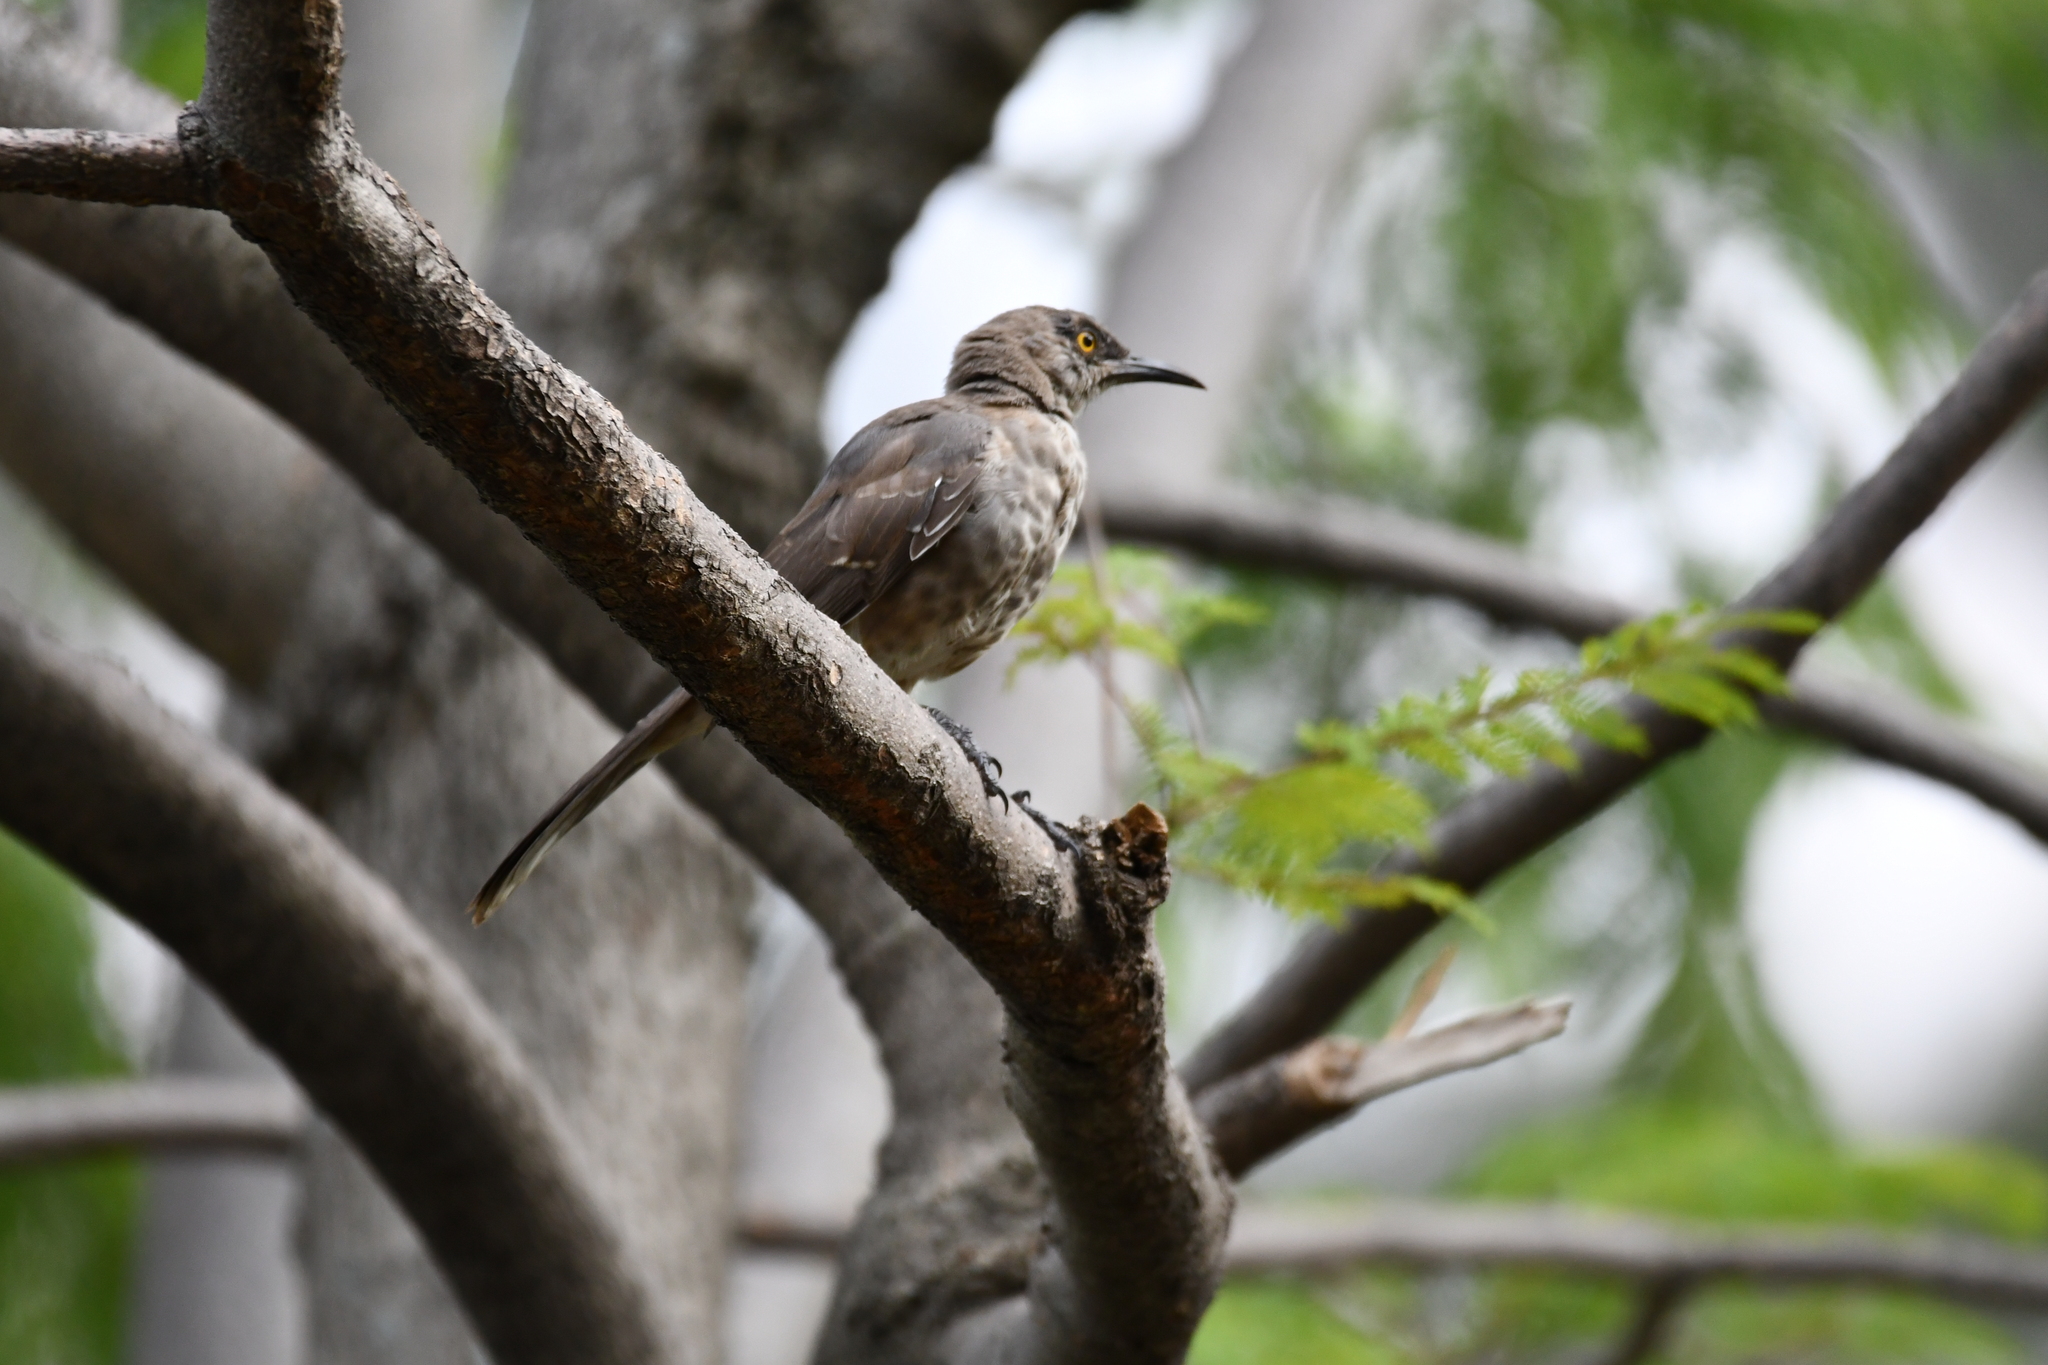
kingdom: Animalia
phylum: Chordata
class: Aves
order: Passeriformes
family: Mimidae
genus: Toxostoma
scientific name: Toxostoma curvirostre
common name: Curve-billed thrasher
